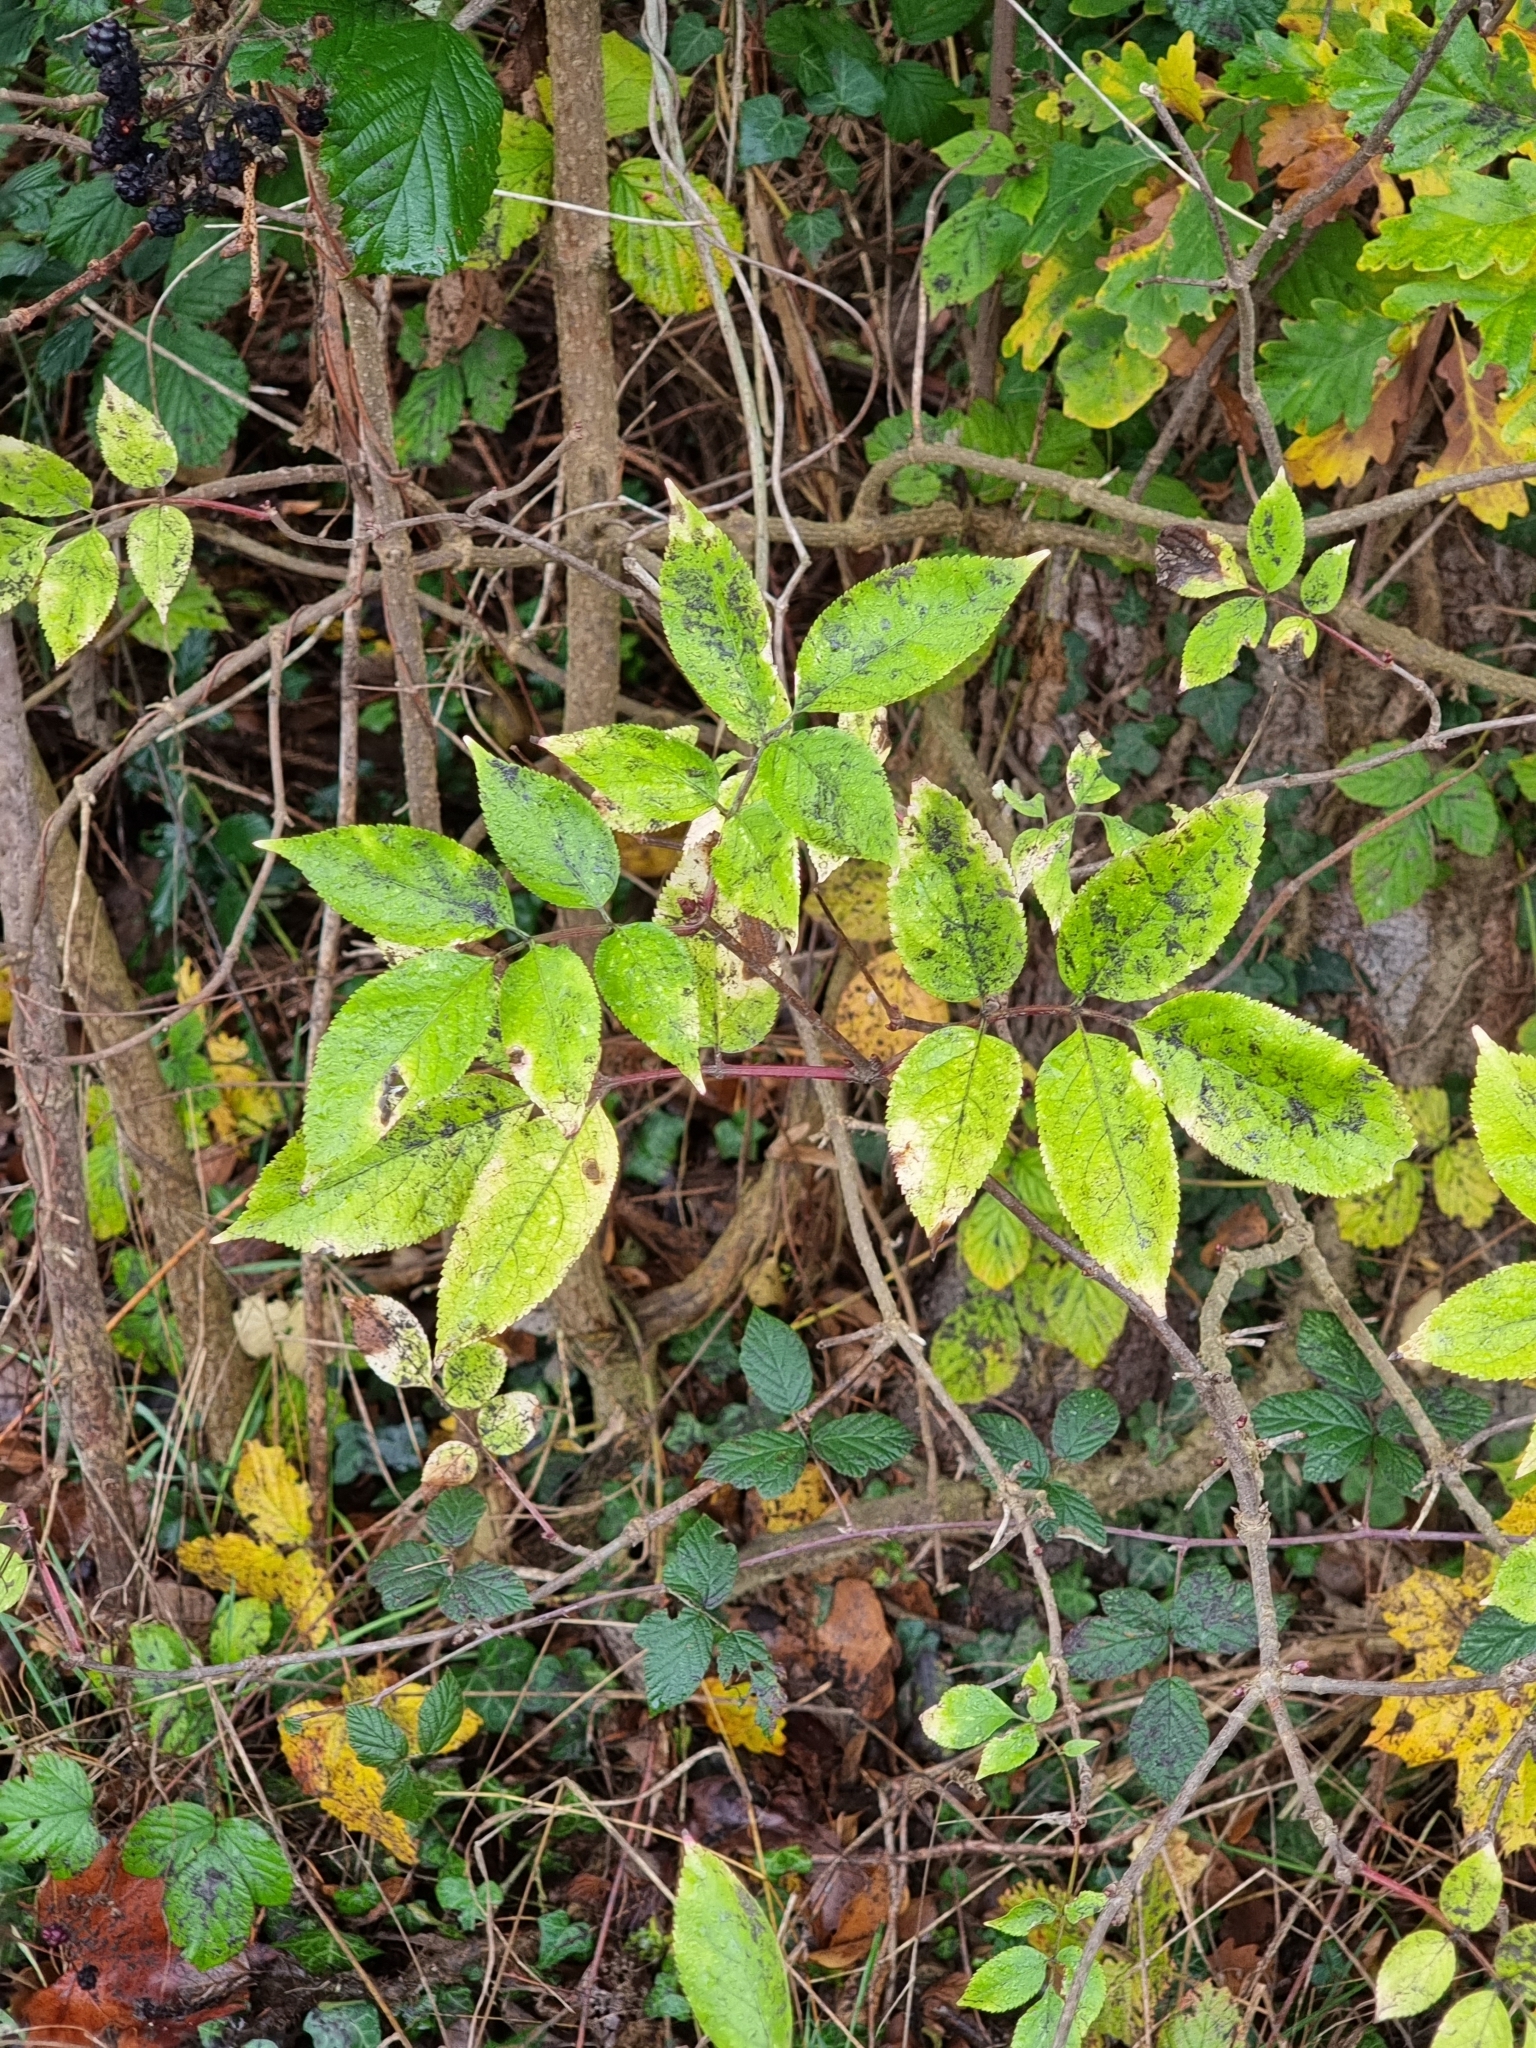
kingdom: Plantae
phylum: Tracheophyta
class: Magnoliopsida
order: Dipsacales
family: Viburnaceae
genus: Sambucus
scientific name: Sambucus nigra
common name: Elder
